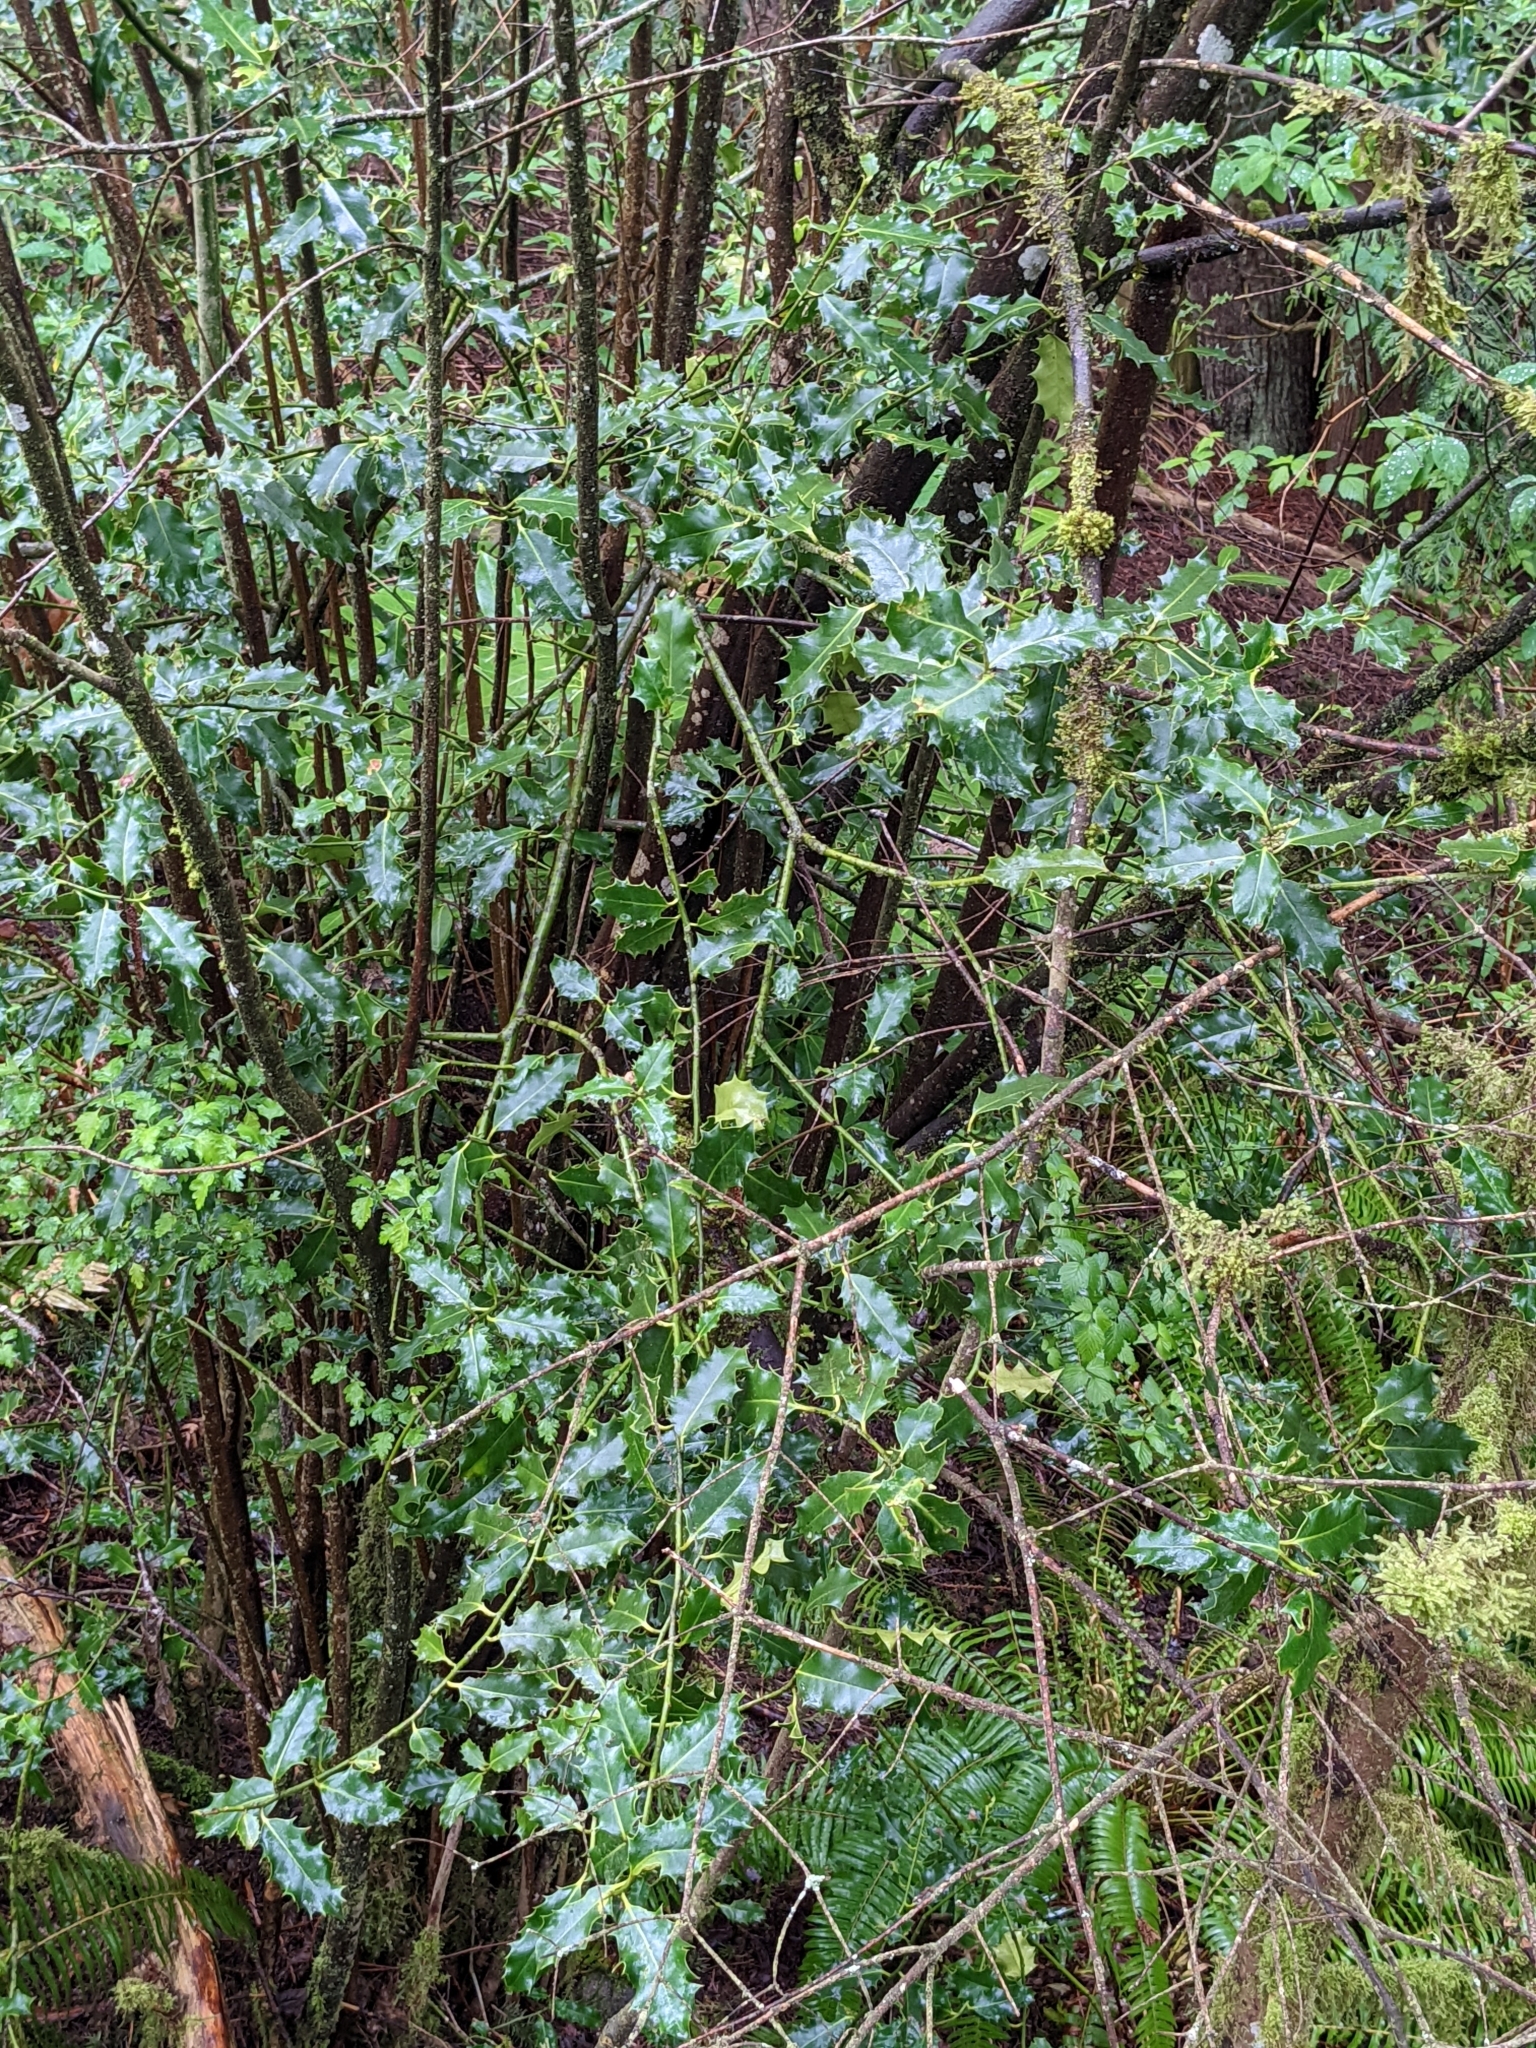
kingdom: Plantae
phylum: Tracheophyta
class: Magnoliopsida
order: Aquifoliales
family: Aquifoliaceae
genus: Ilex
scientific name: Ilex aquifolium
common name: English holly
